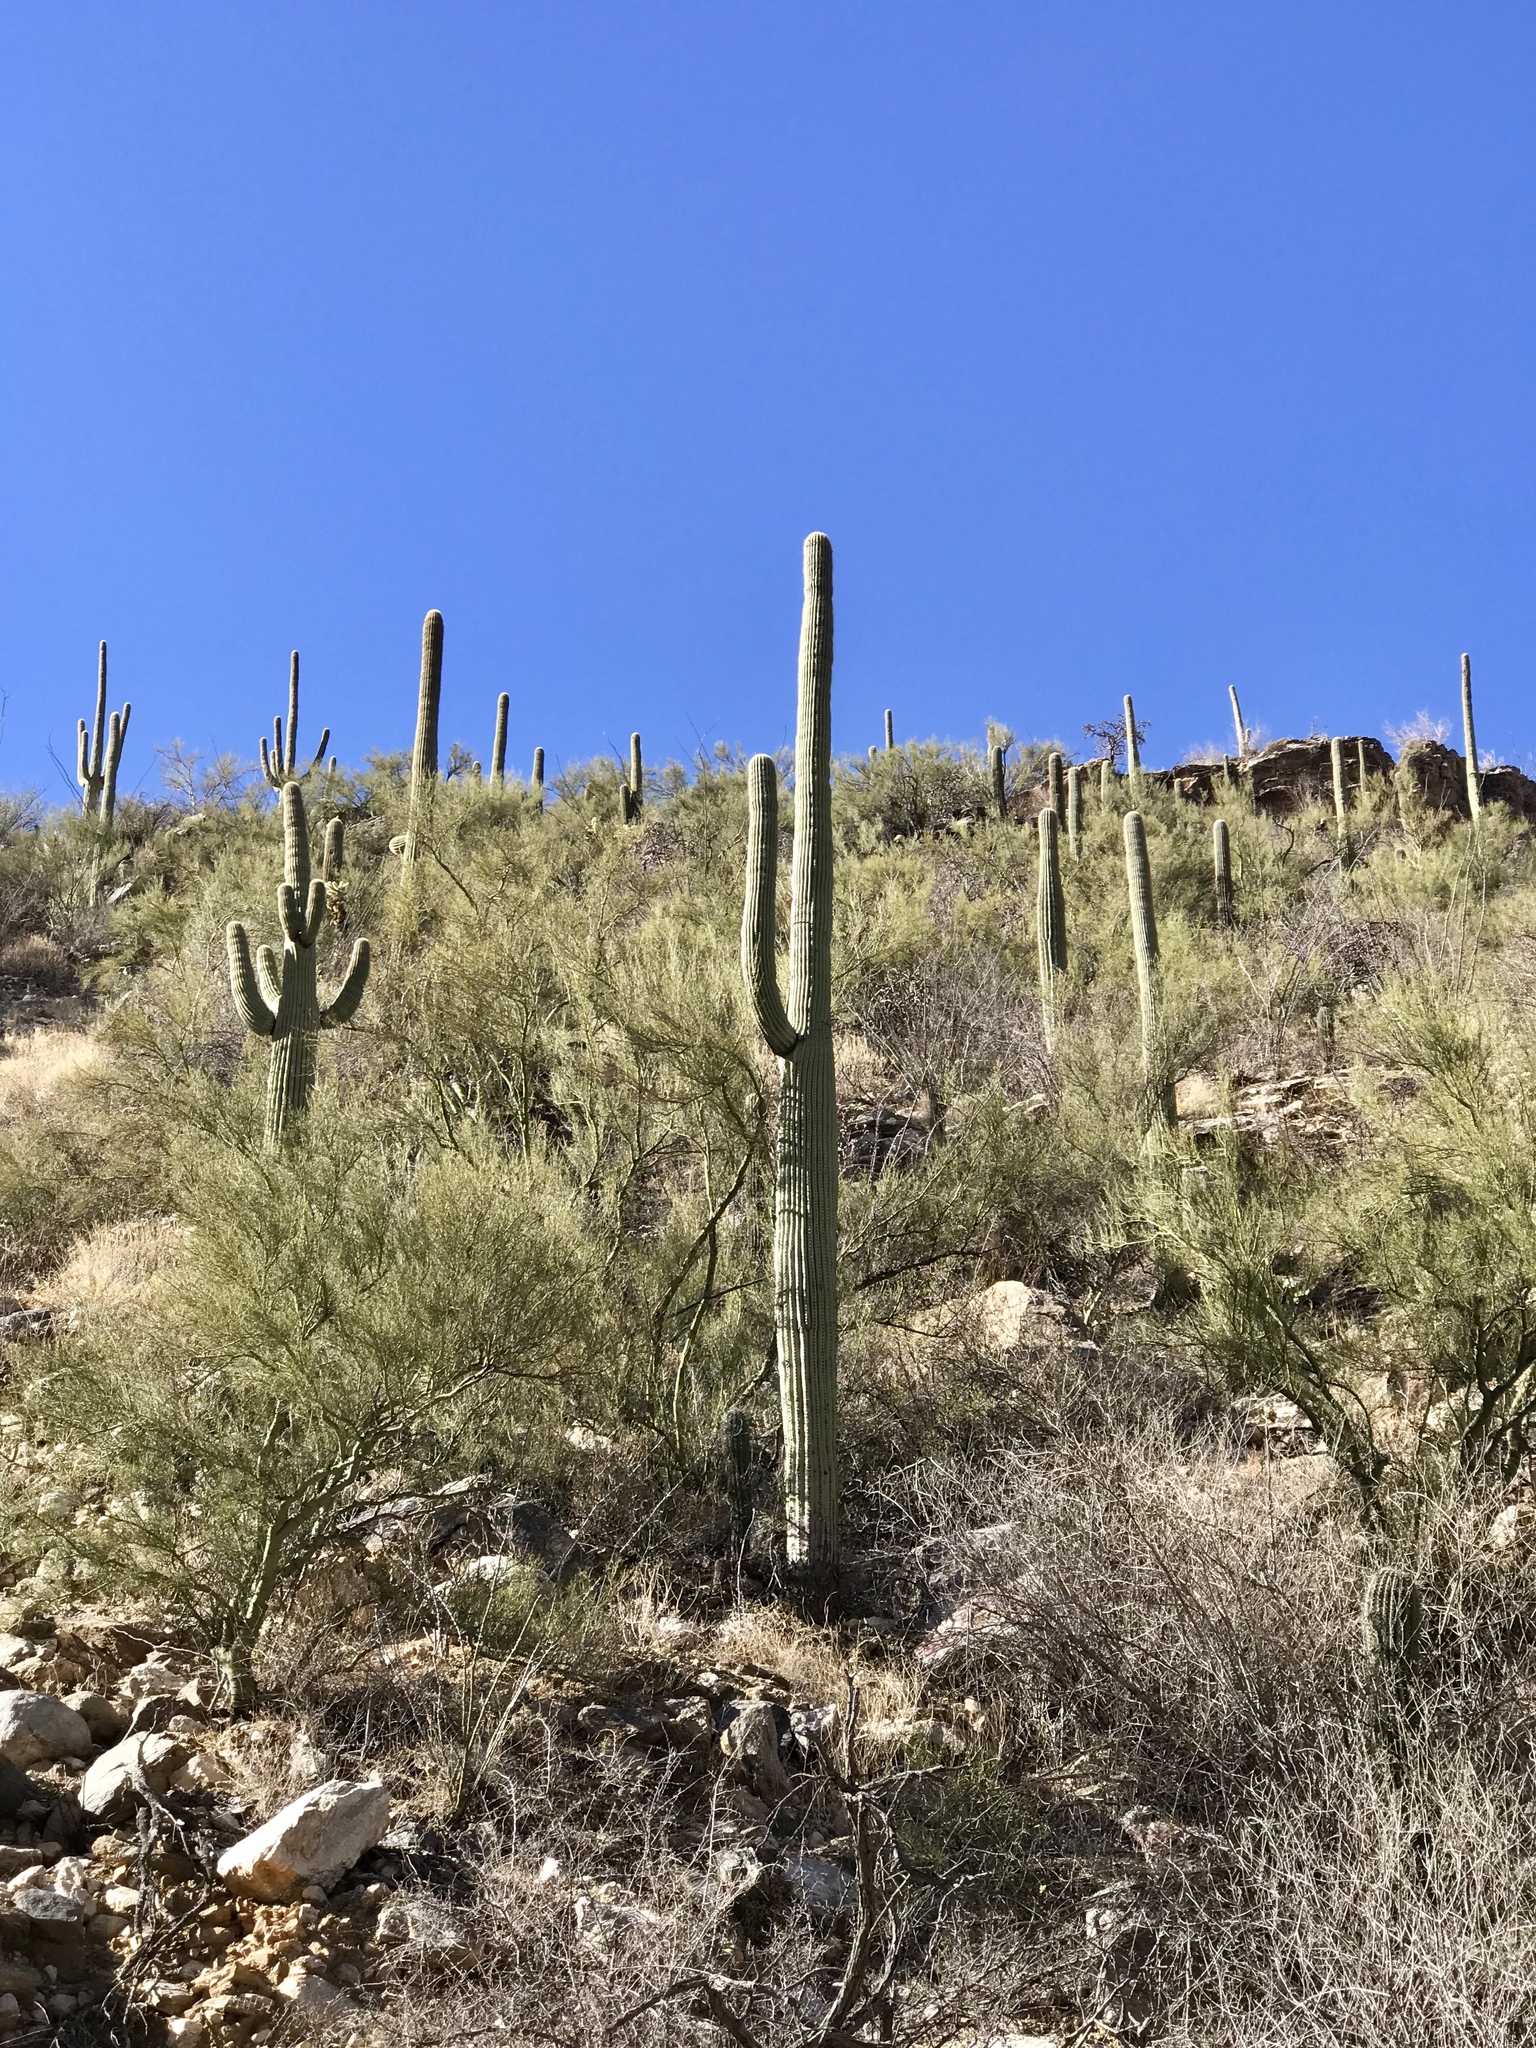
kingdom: Plantae
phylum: Tracheophyta
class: Magnoliopsida
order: Caryophyllales
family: Cactaceae
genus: Carnegiea
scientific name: Carnegiea gigantea
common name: Saguaro
